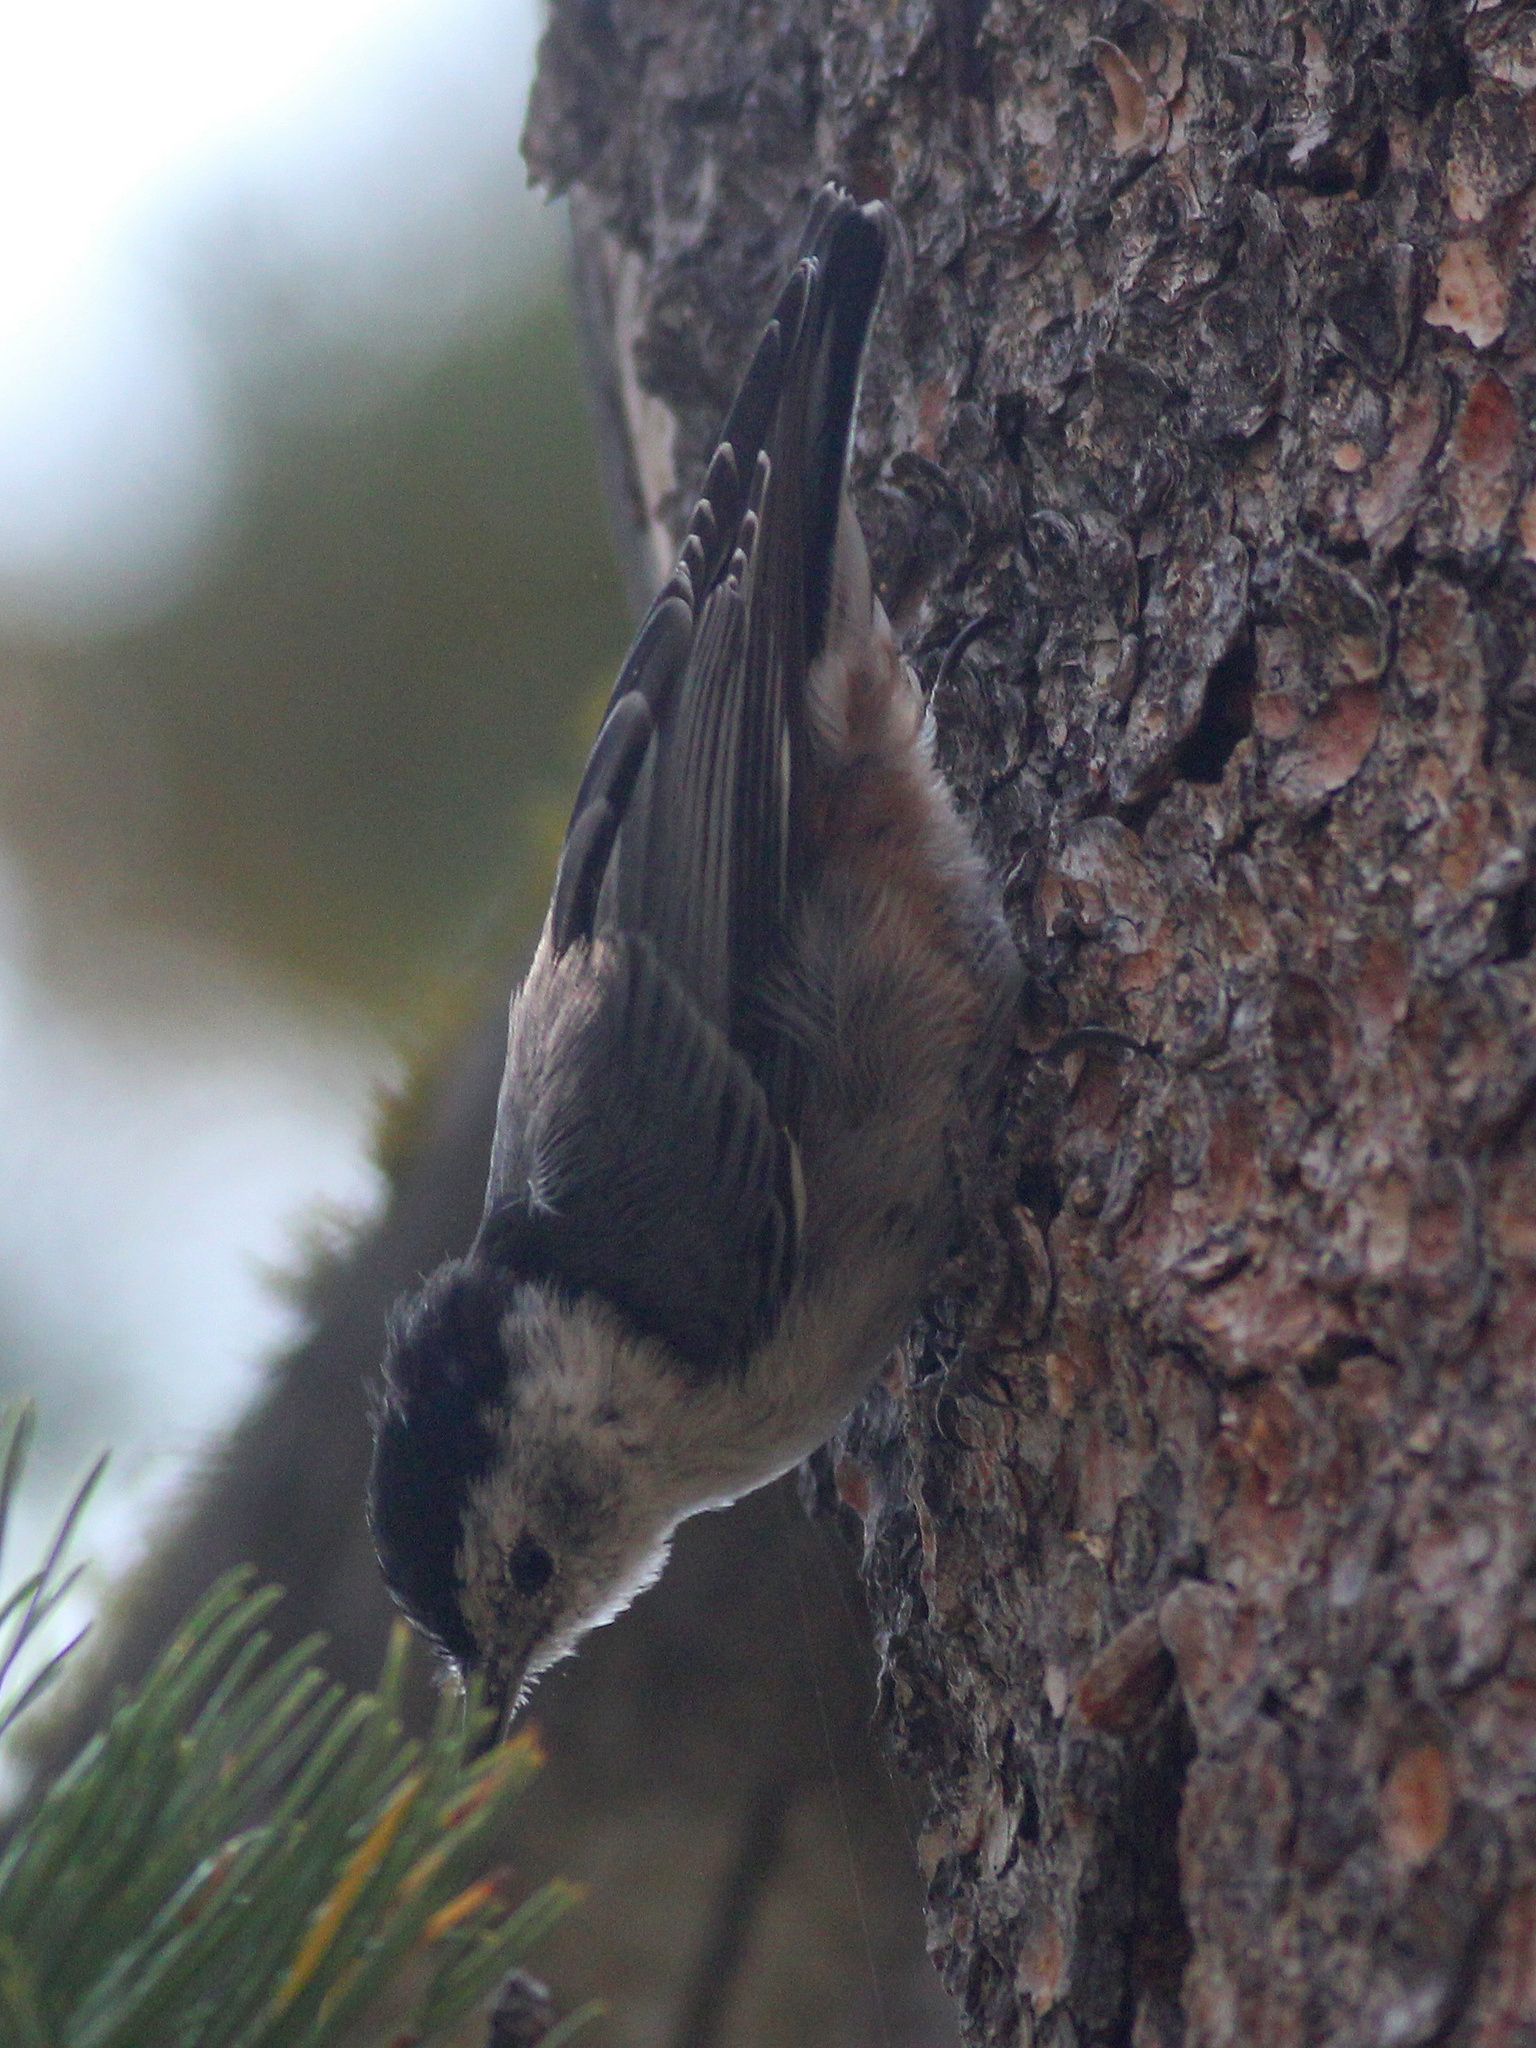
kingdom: Animalia
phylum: Chordata
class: Aves
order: Passeriformes
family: Sittidae
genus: Sitta
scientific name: Sitta carolinensis
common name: White-breasted nuthatch
